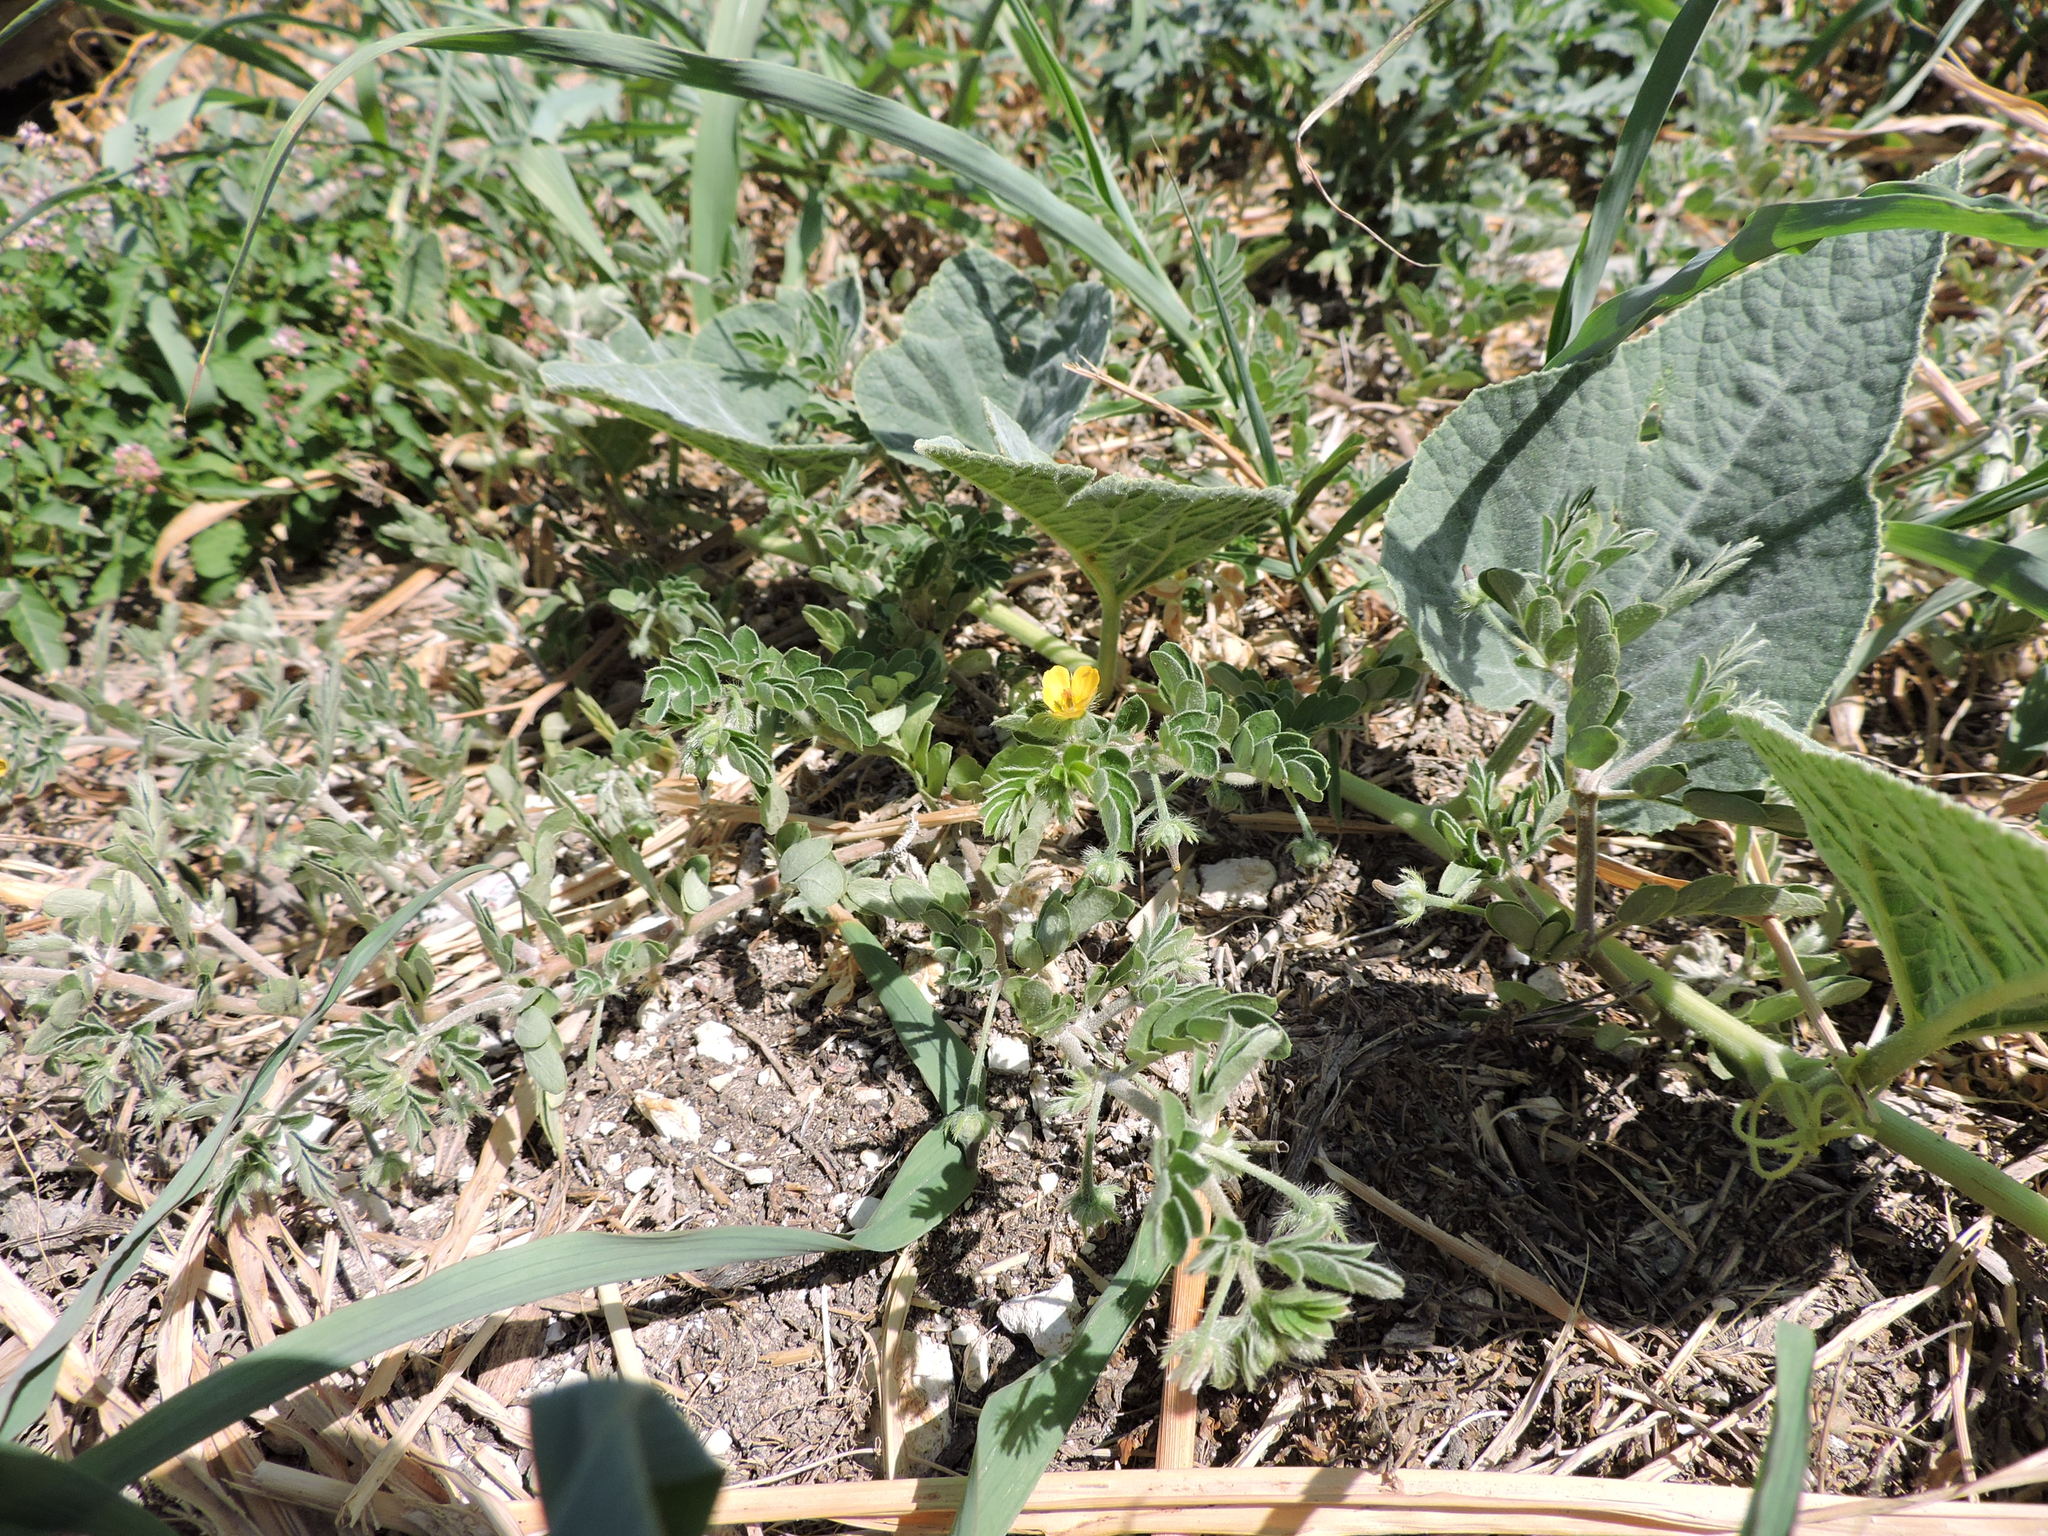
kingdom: Plantae
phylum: Tracheophyta
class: Magnoliopsida
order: Zygophyllales
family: Zygophyllaceae
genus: Kallstroemia
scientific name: Kallstroemia parviflora
